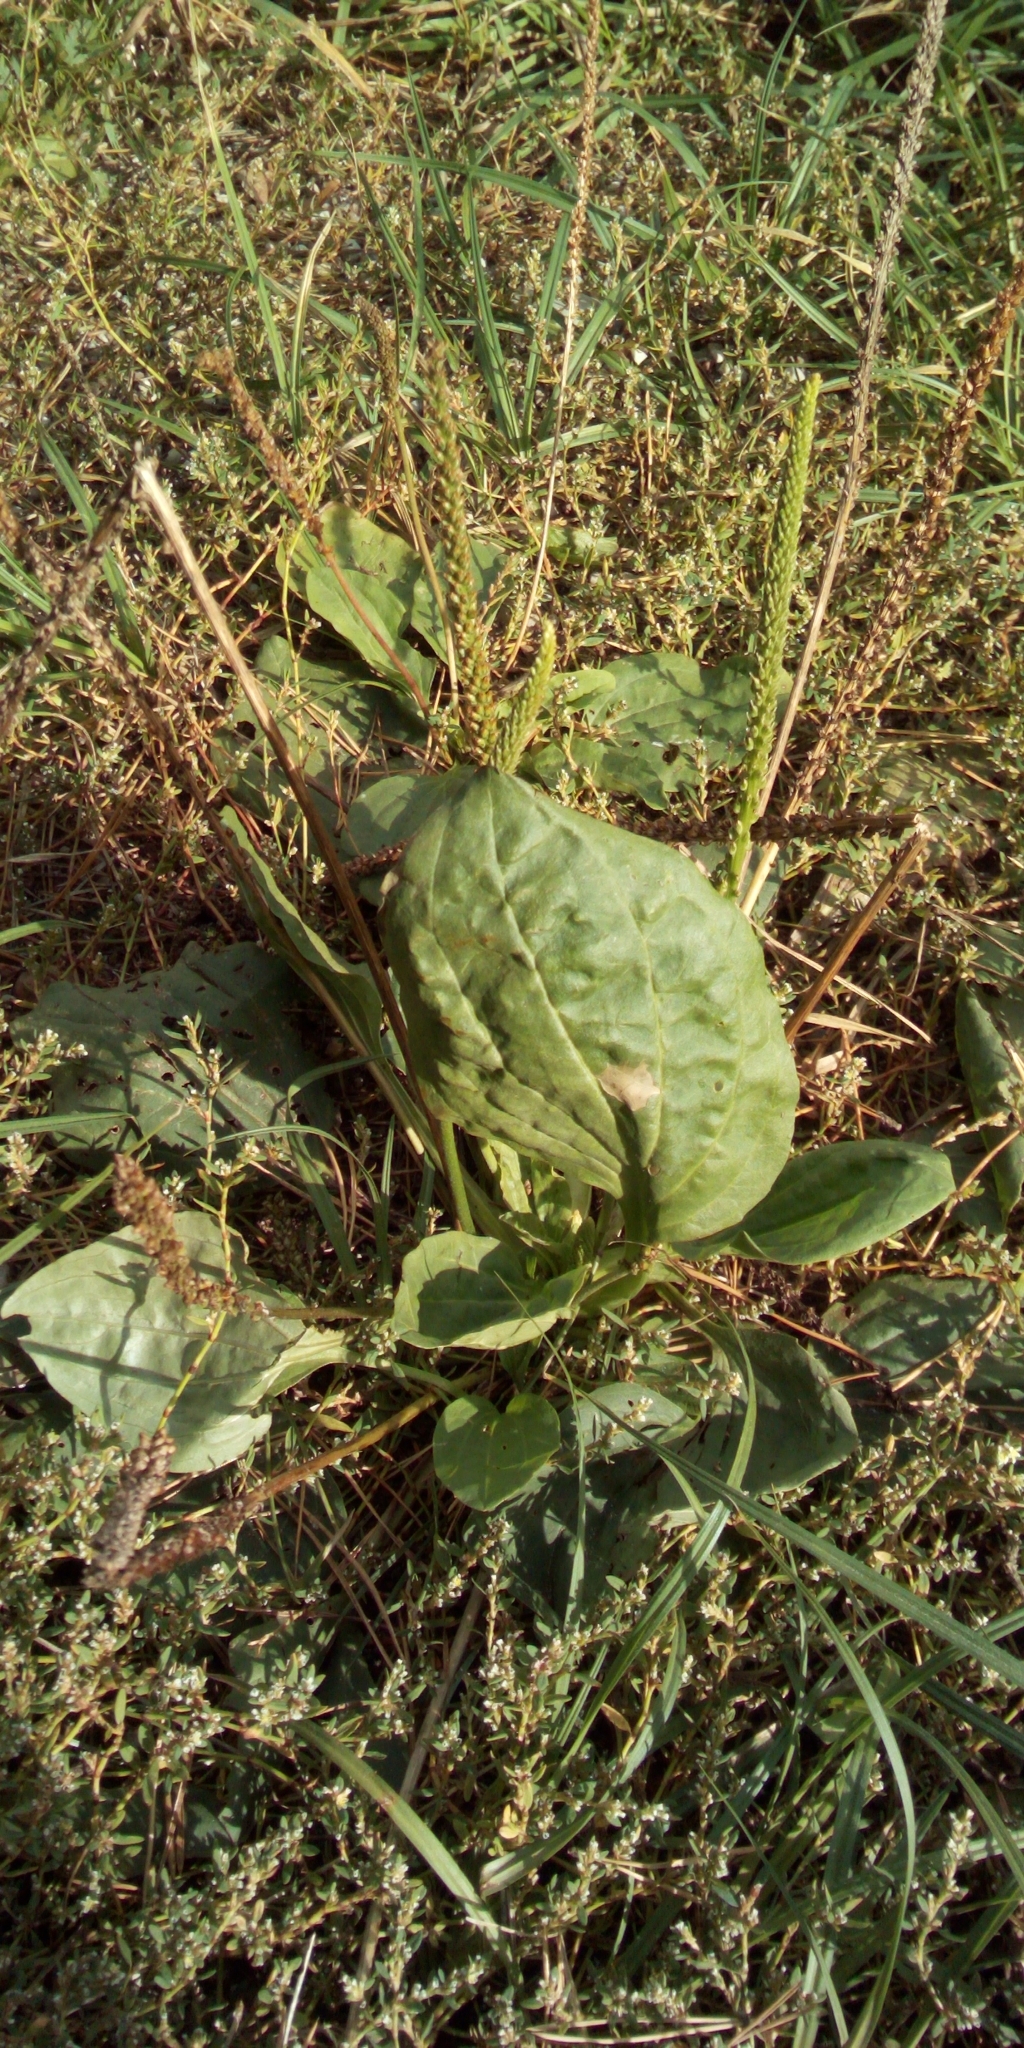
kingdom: Plantae
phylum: Tracheophyta
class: Magnoliopsida
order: Lamiales
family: Plantaginaceae
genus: Plantago
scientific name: Plantago major
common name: Common plantain
